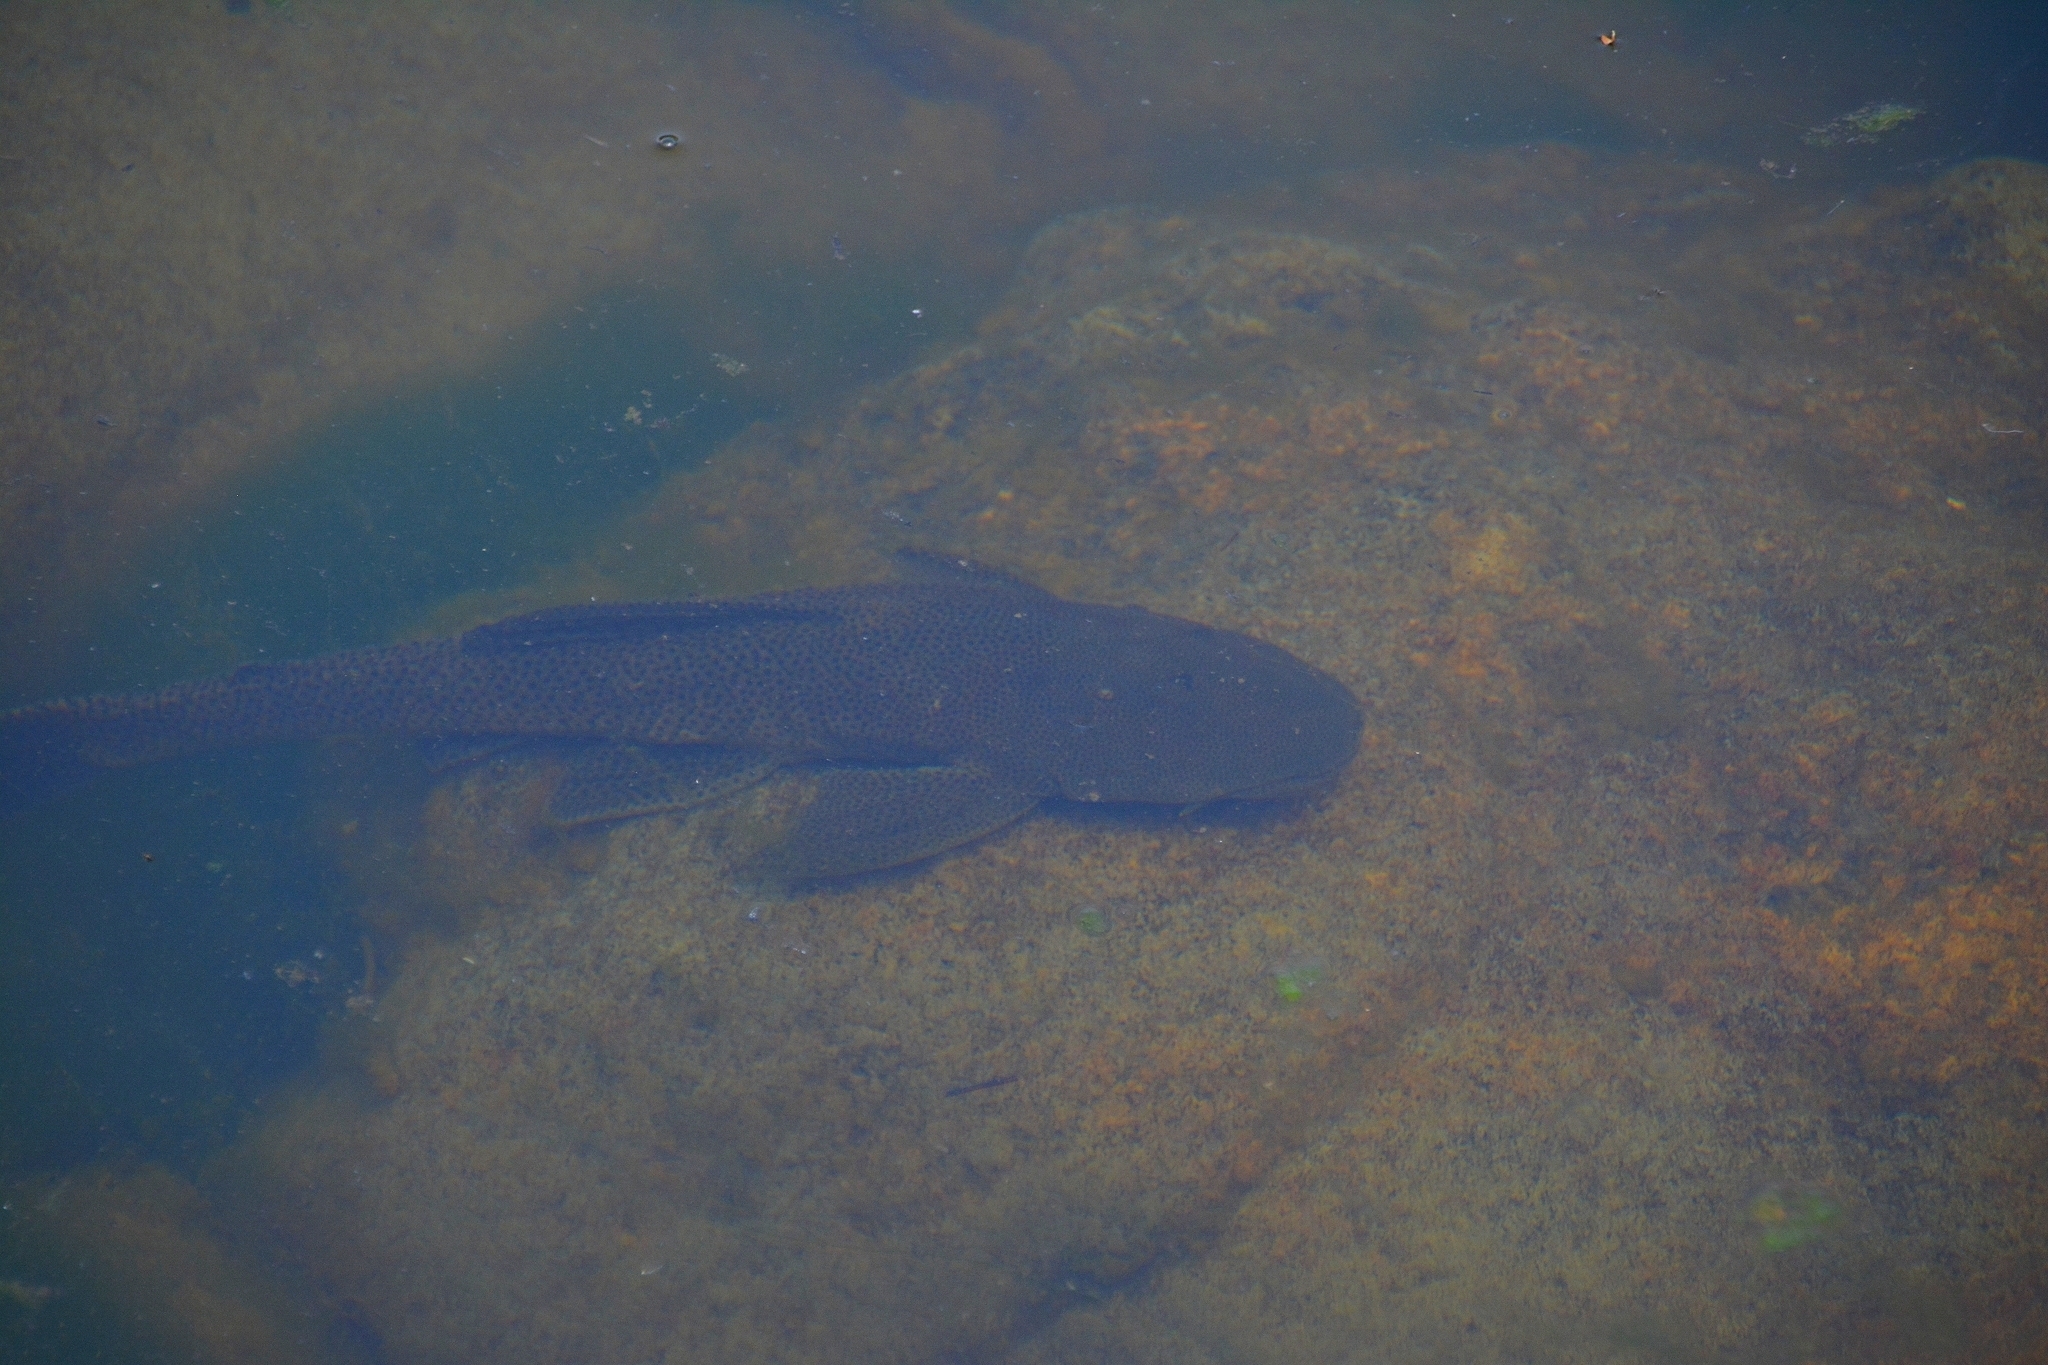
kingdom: Animalia
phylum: Chordata
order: Siluriformes
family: Loricariidae
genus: Hypostomus
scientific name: Hypostomus paranensis
